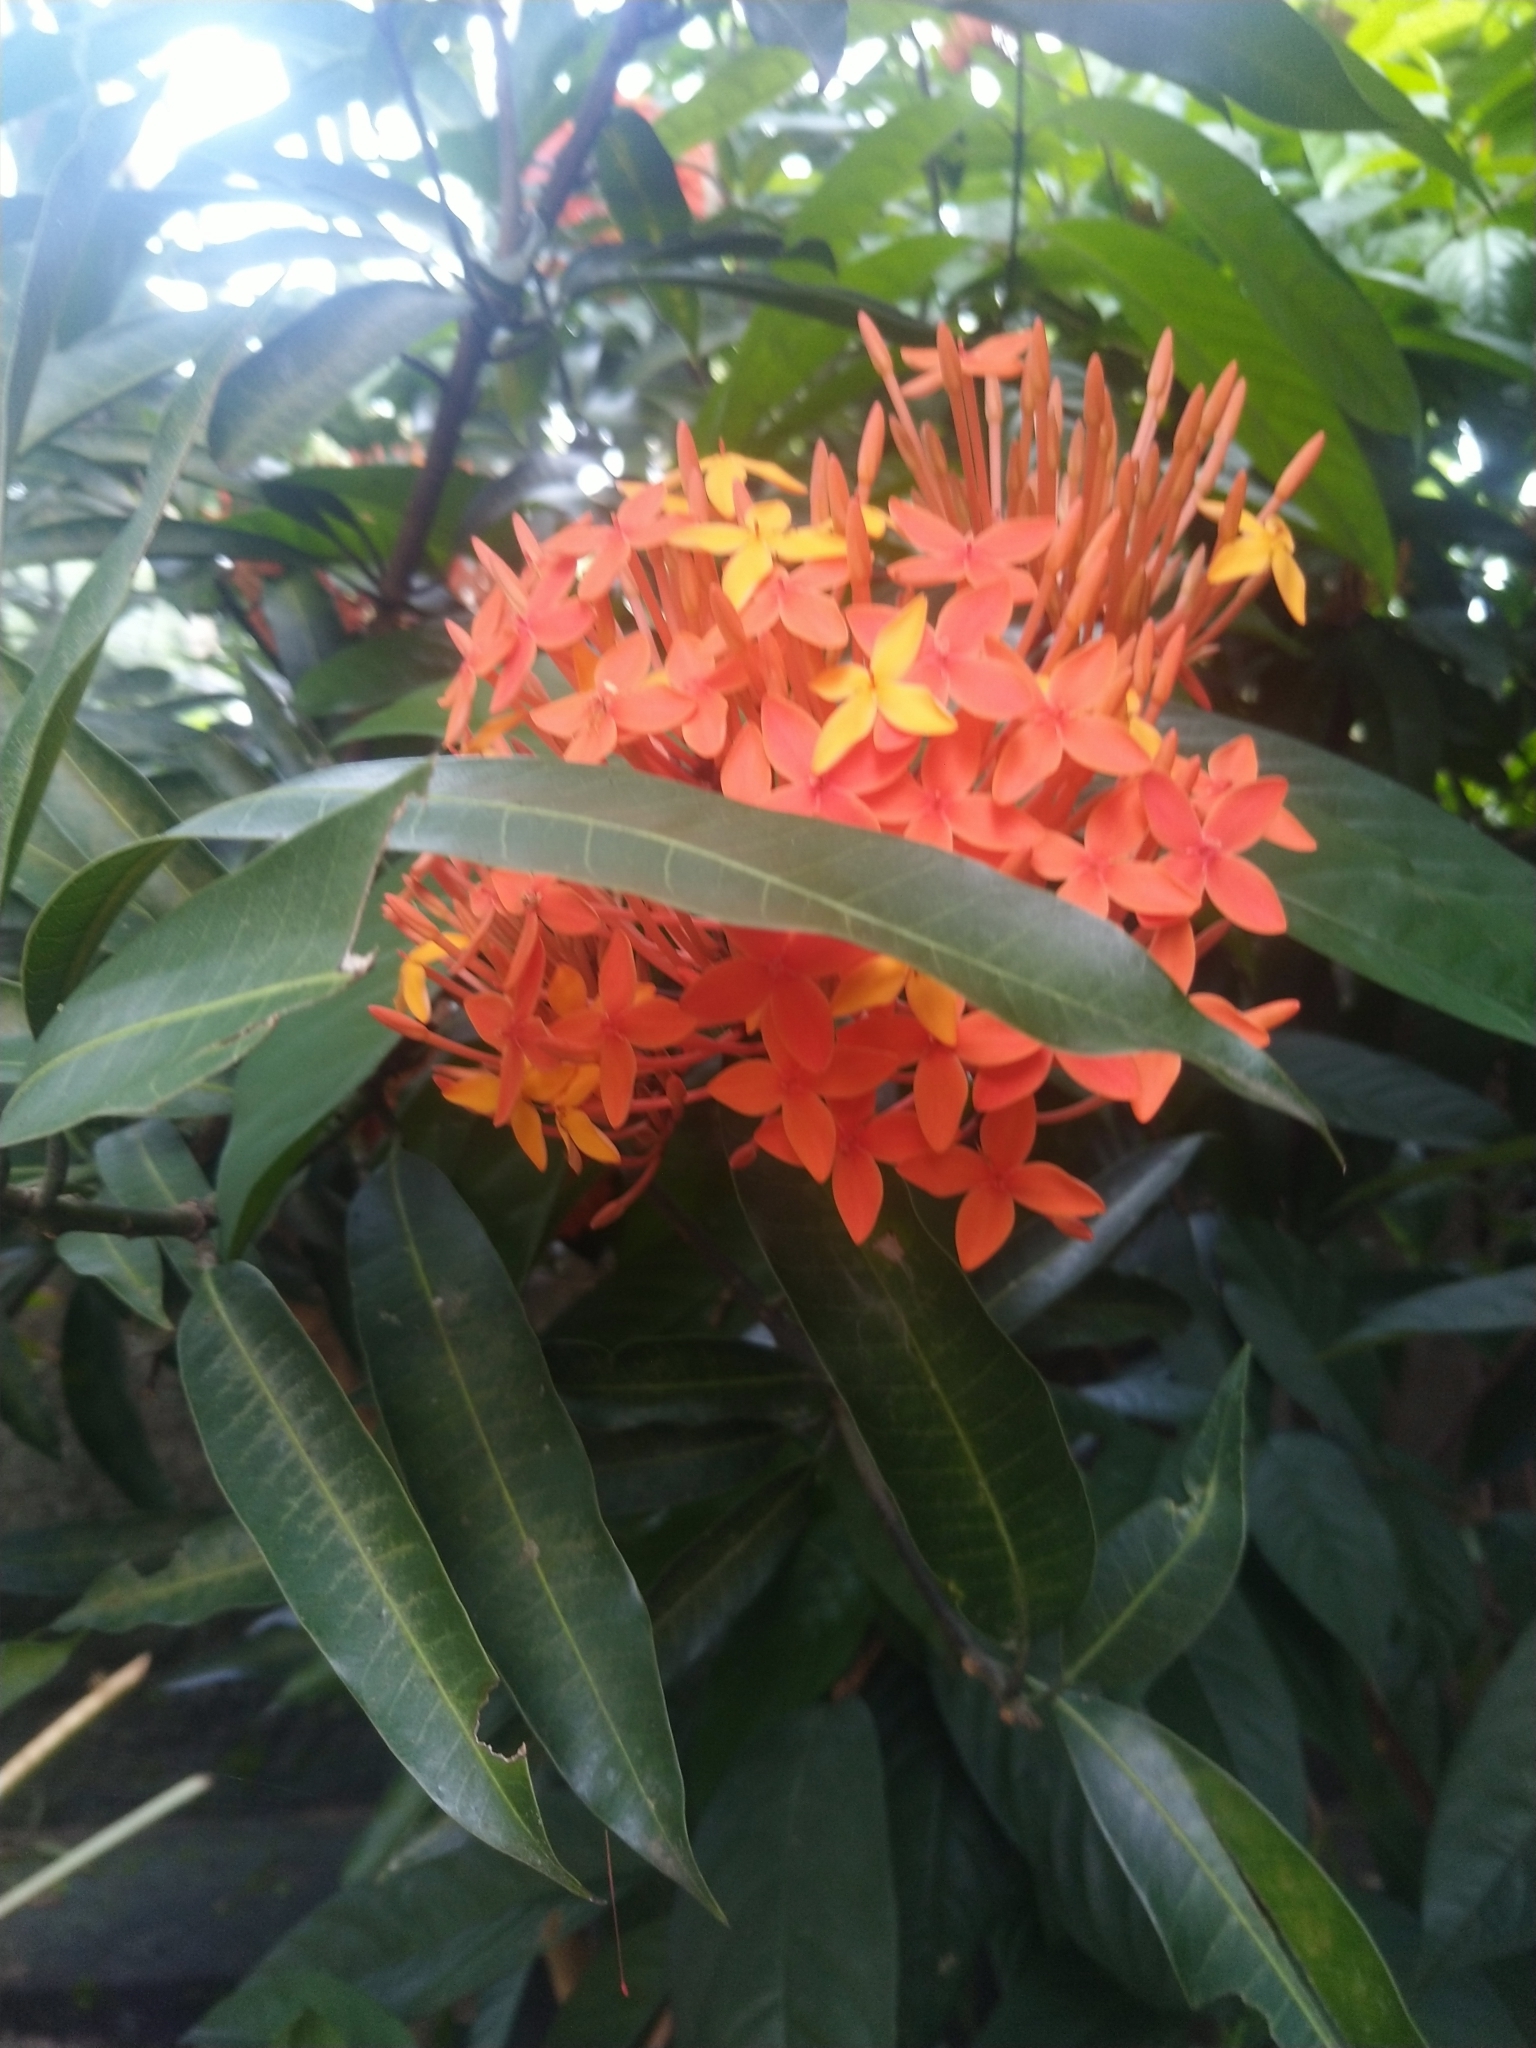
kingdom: Plantae
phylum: Tracheophyta
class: Magnoliopsida
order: Gentianales
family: Rubiaceae
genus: Ixora
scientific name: Ixora coccinea
